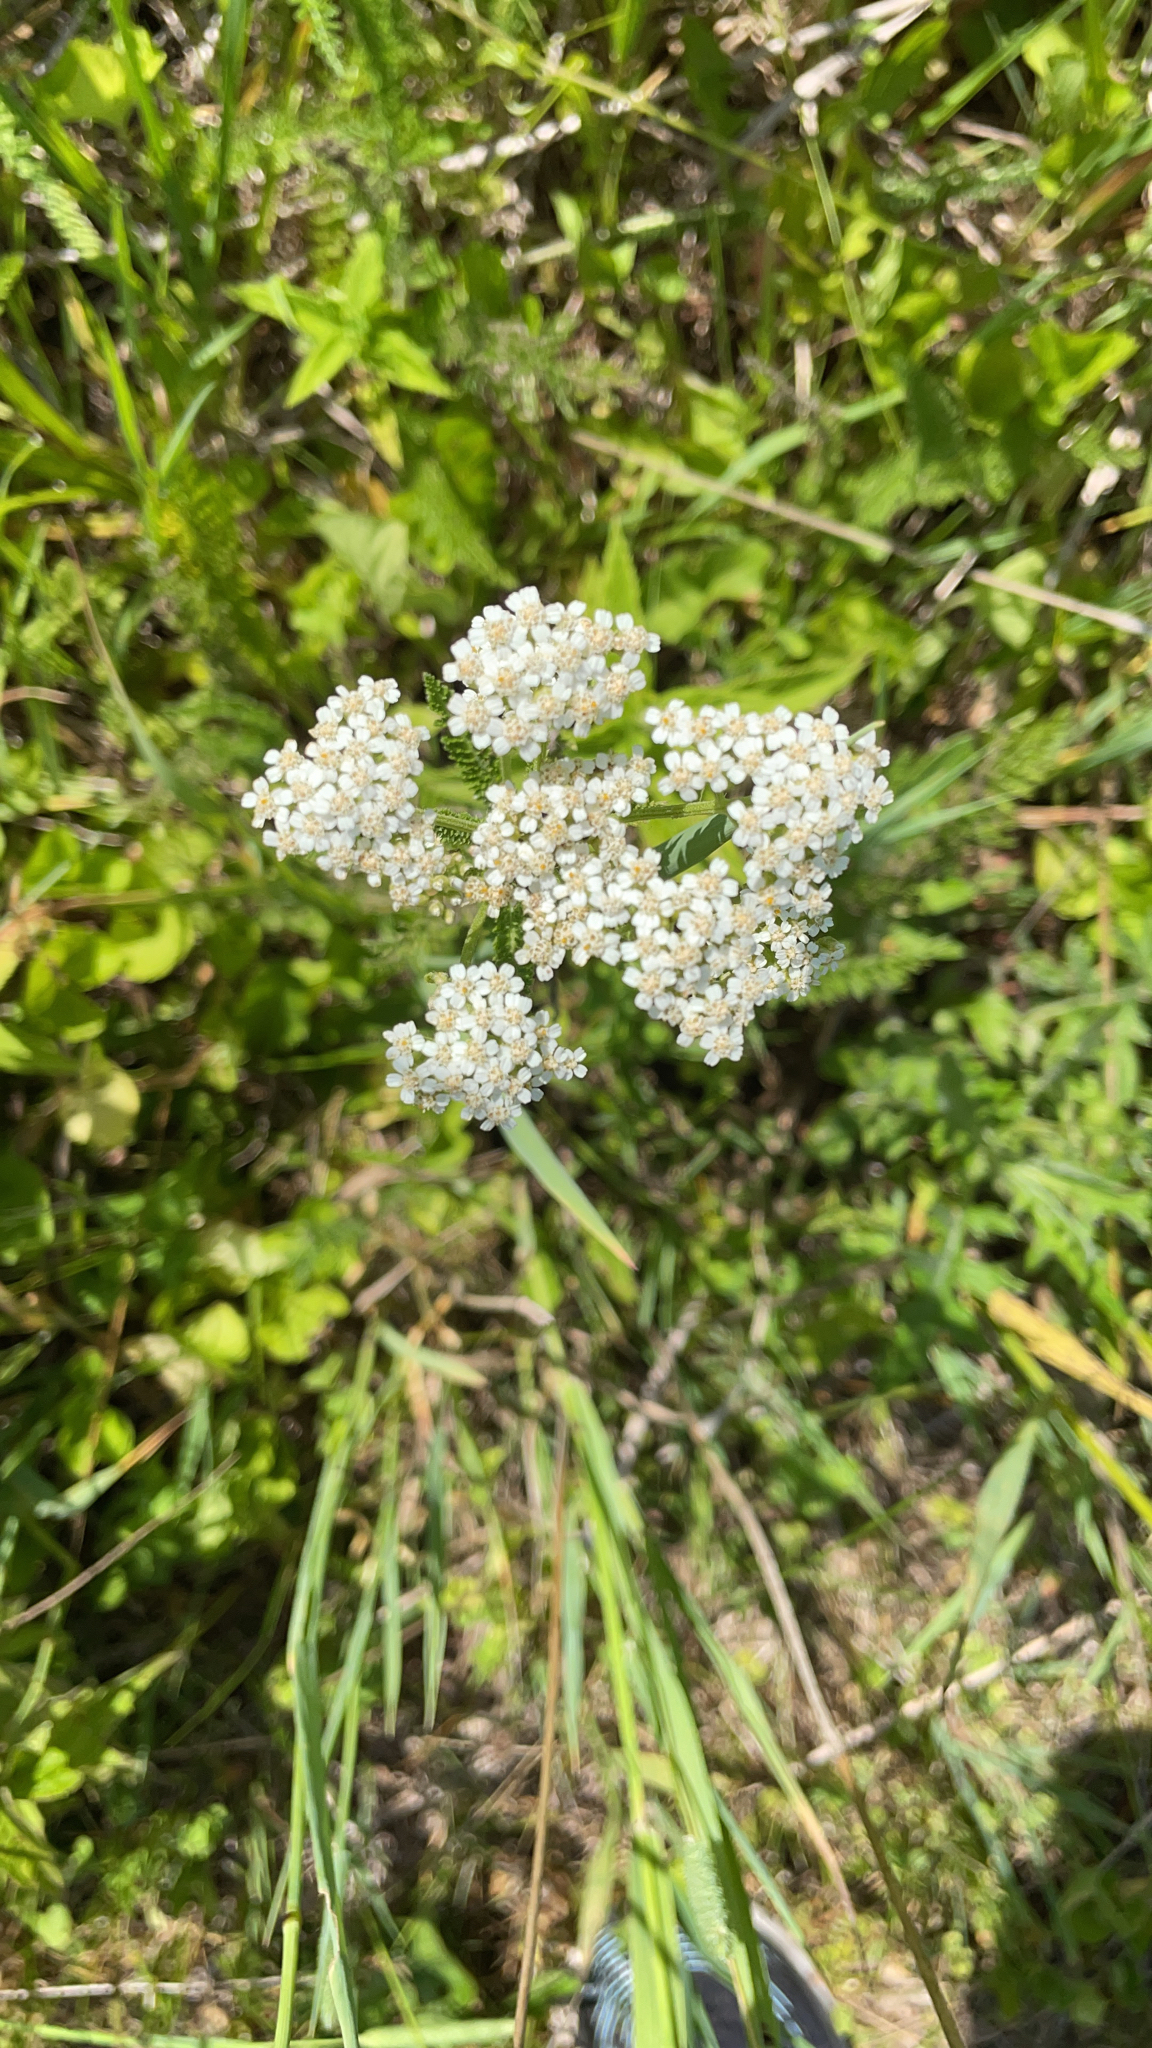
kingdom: Plantae
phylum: Tracheophyta
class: Magnoliopsida
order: Asterales
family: Asteraceae
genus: Achillea
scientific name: Achillea millefolium
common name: Yarrow
